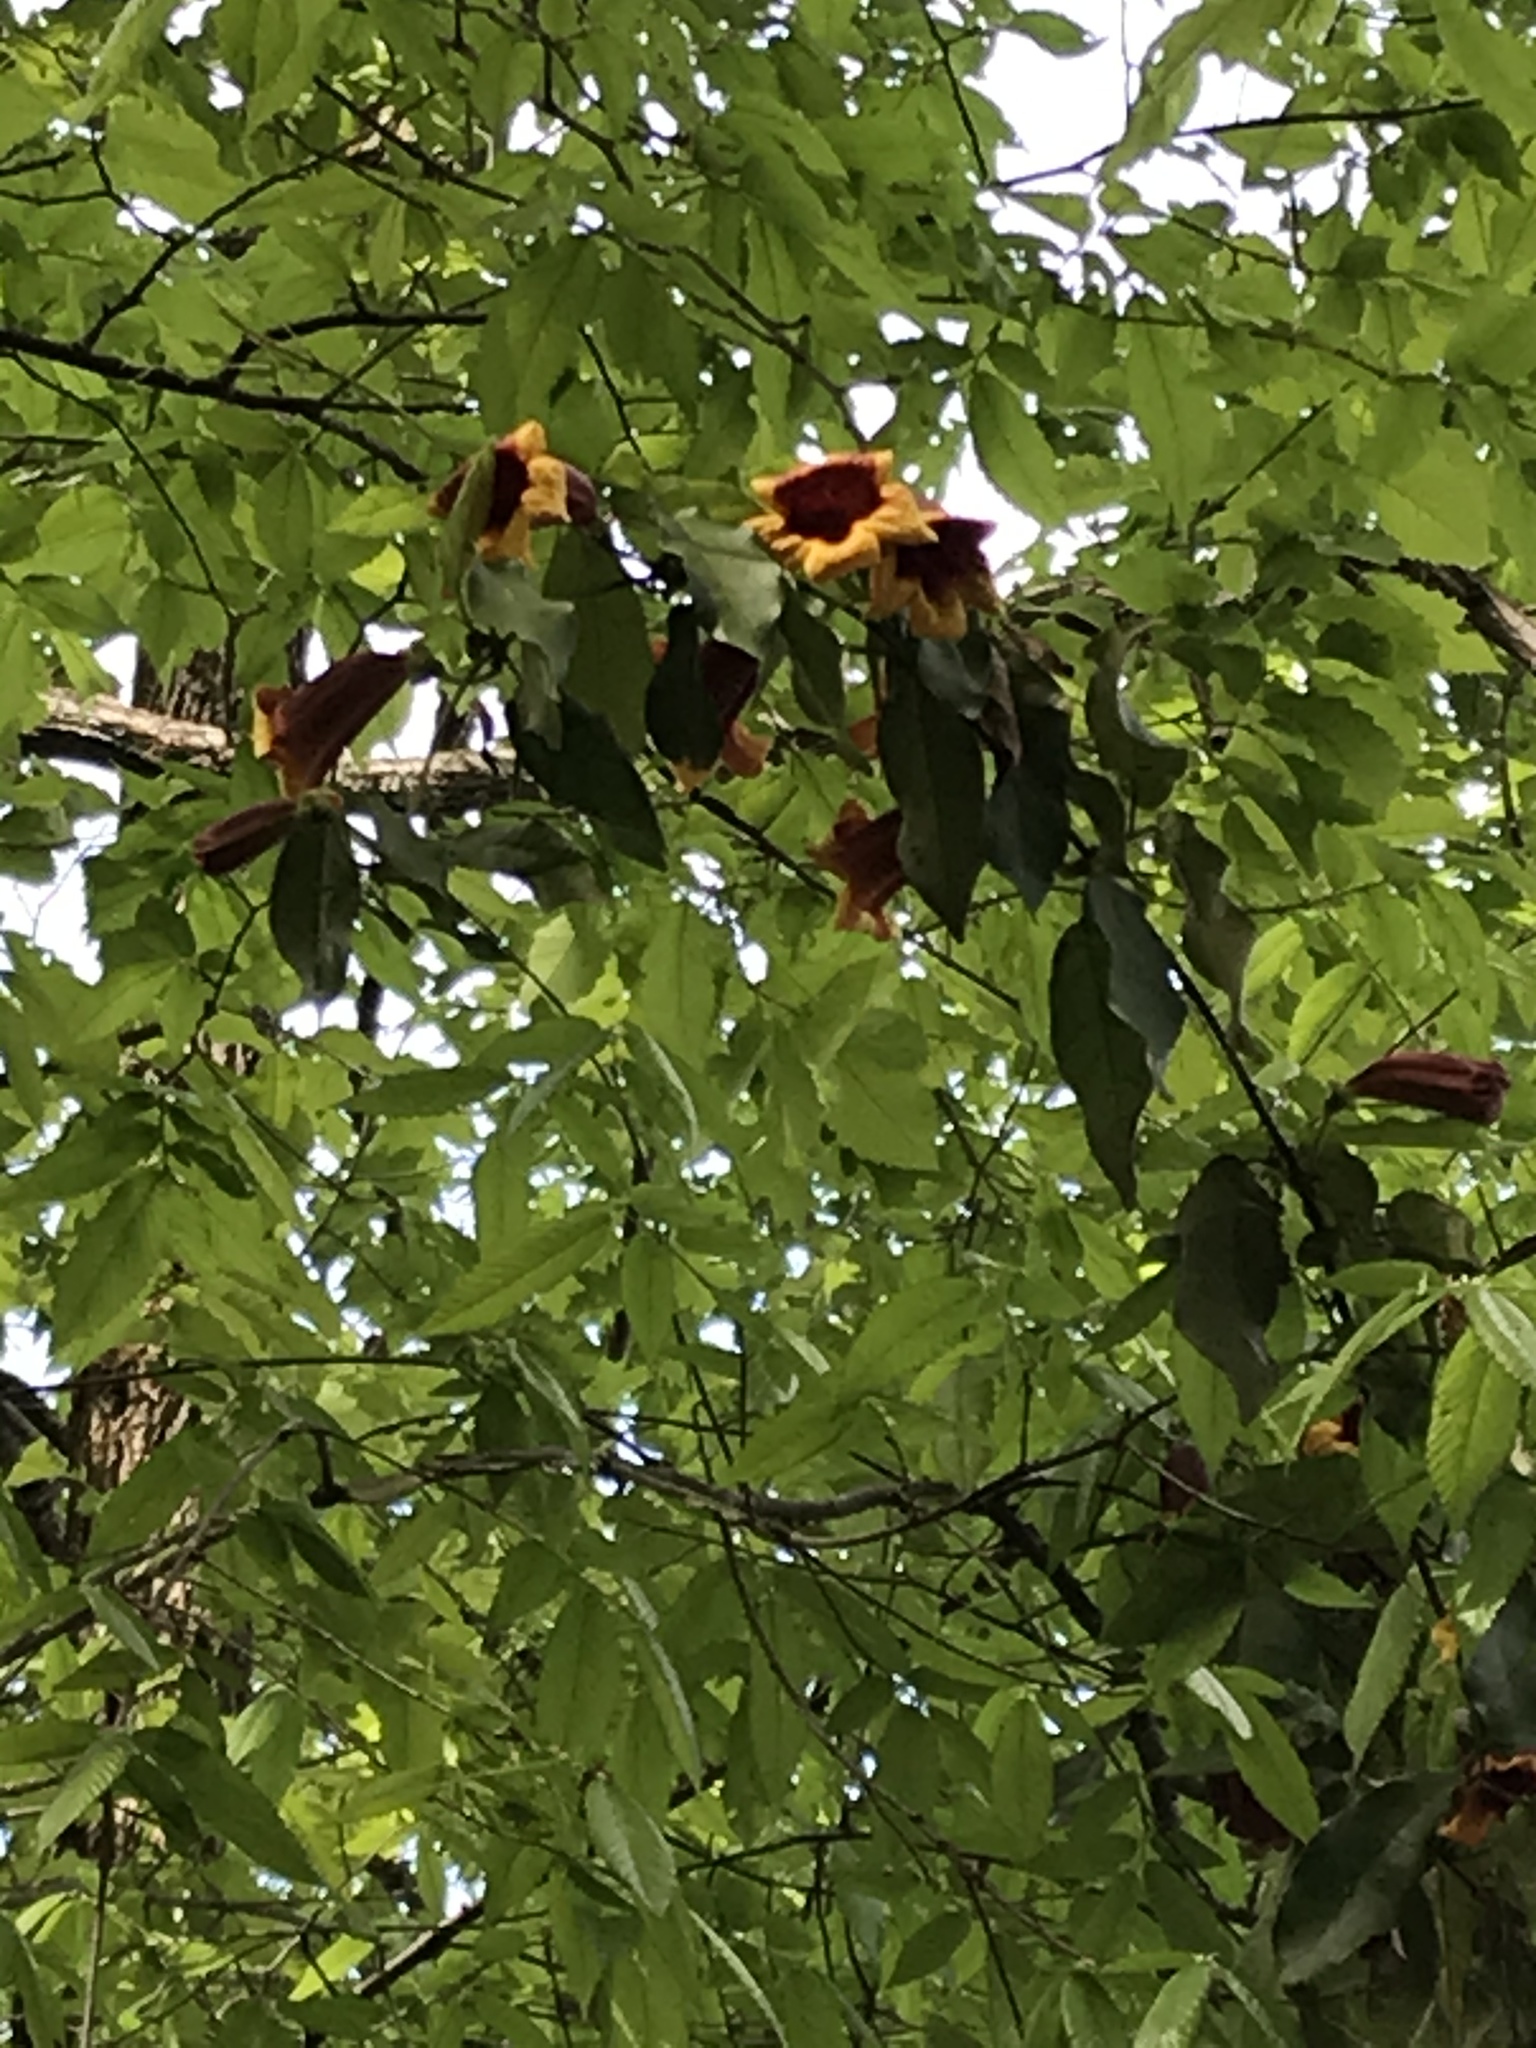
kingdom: Plantae
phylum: Tracheophyta
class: Magnoliopsida
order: Lamiales
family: Bignoniaceae
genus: Bignonia
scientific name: Bignonia capreolata
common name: Crossvine
